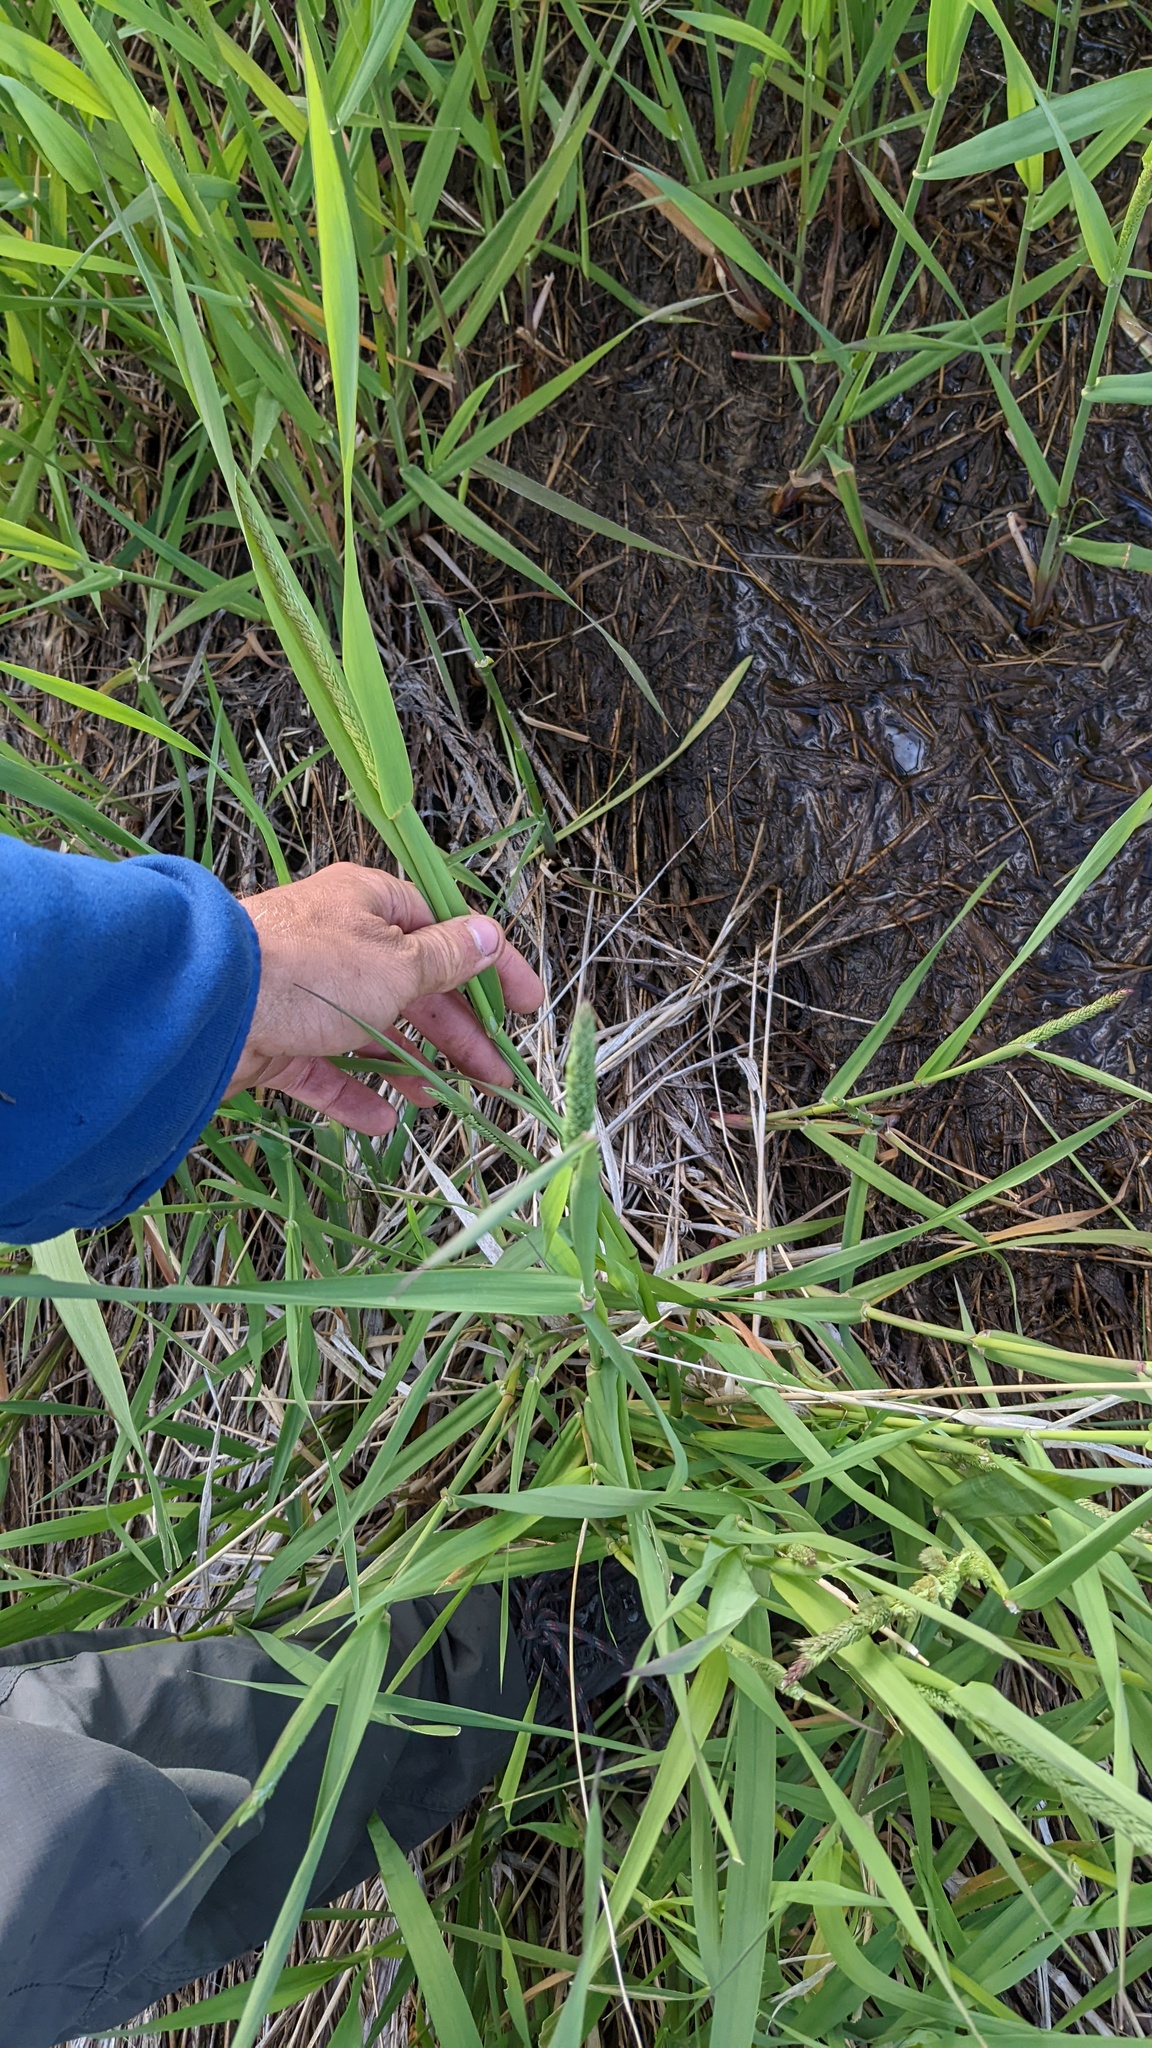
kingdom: Plantae
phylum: Tracheophyta
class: Liliopsida
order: Poales
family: Poaceae
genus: Phalaris
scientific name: Phalaris arundinacea
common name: Reed canary-grass
